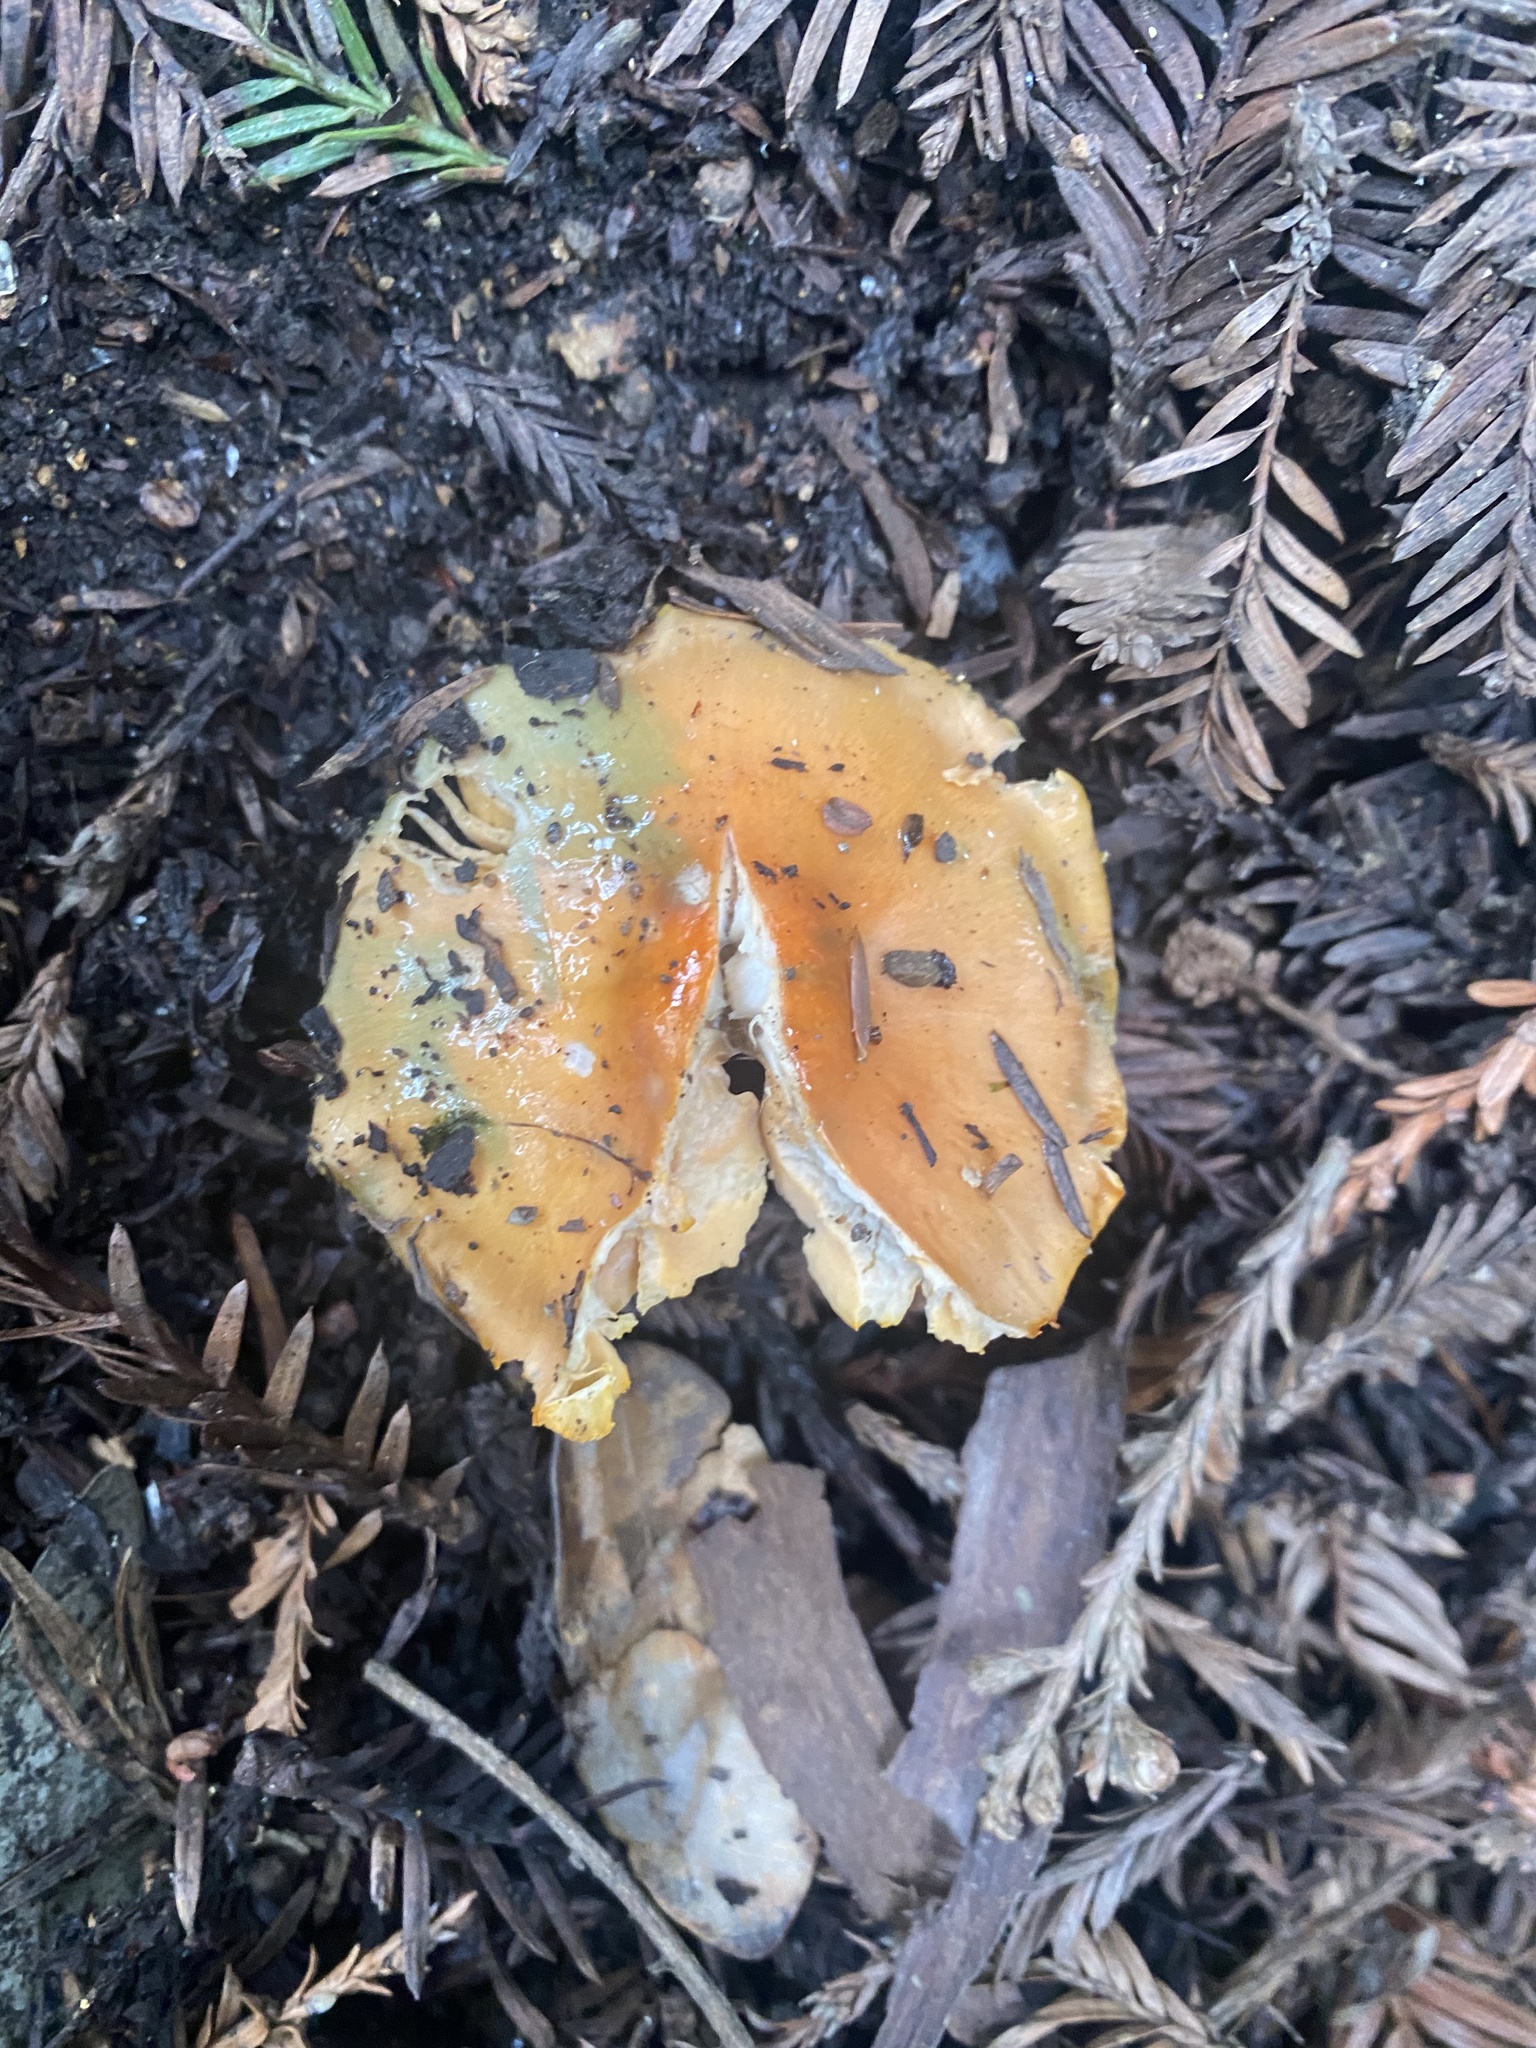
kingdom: Fungi
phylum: Basidiomycota
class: Agaricomycetes
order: Agaricales
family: Hygrophoraceae
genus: Gliophorus
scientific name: Gliophorus psittacinus
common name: Parrot wax-cap
